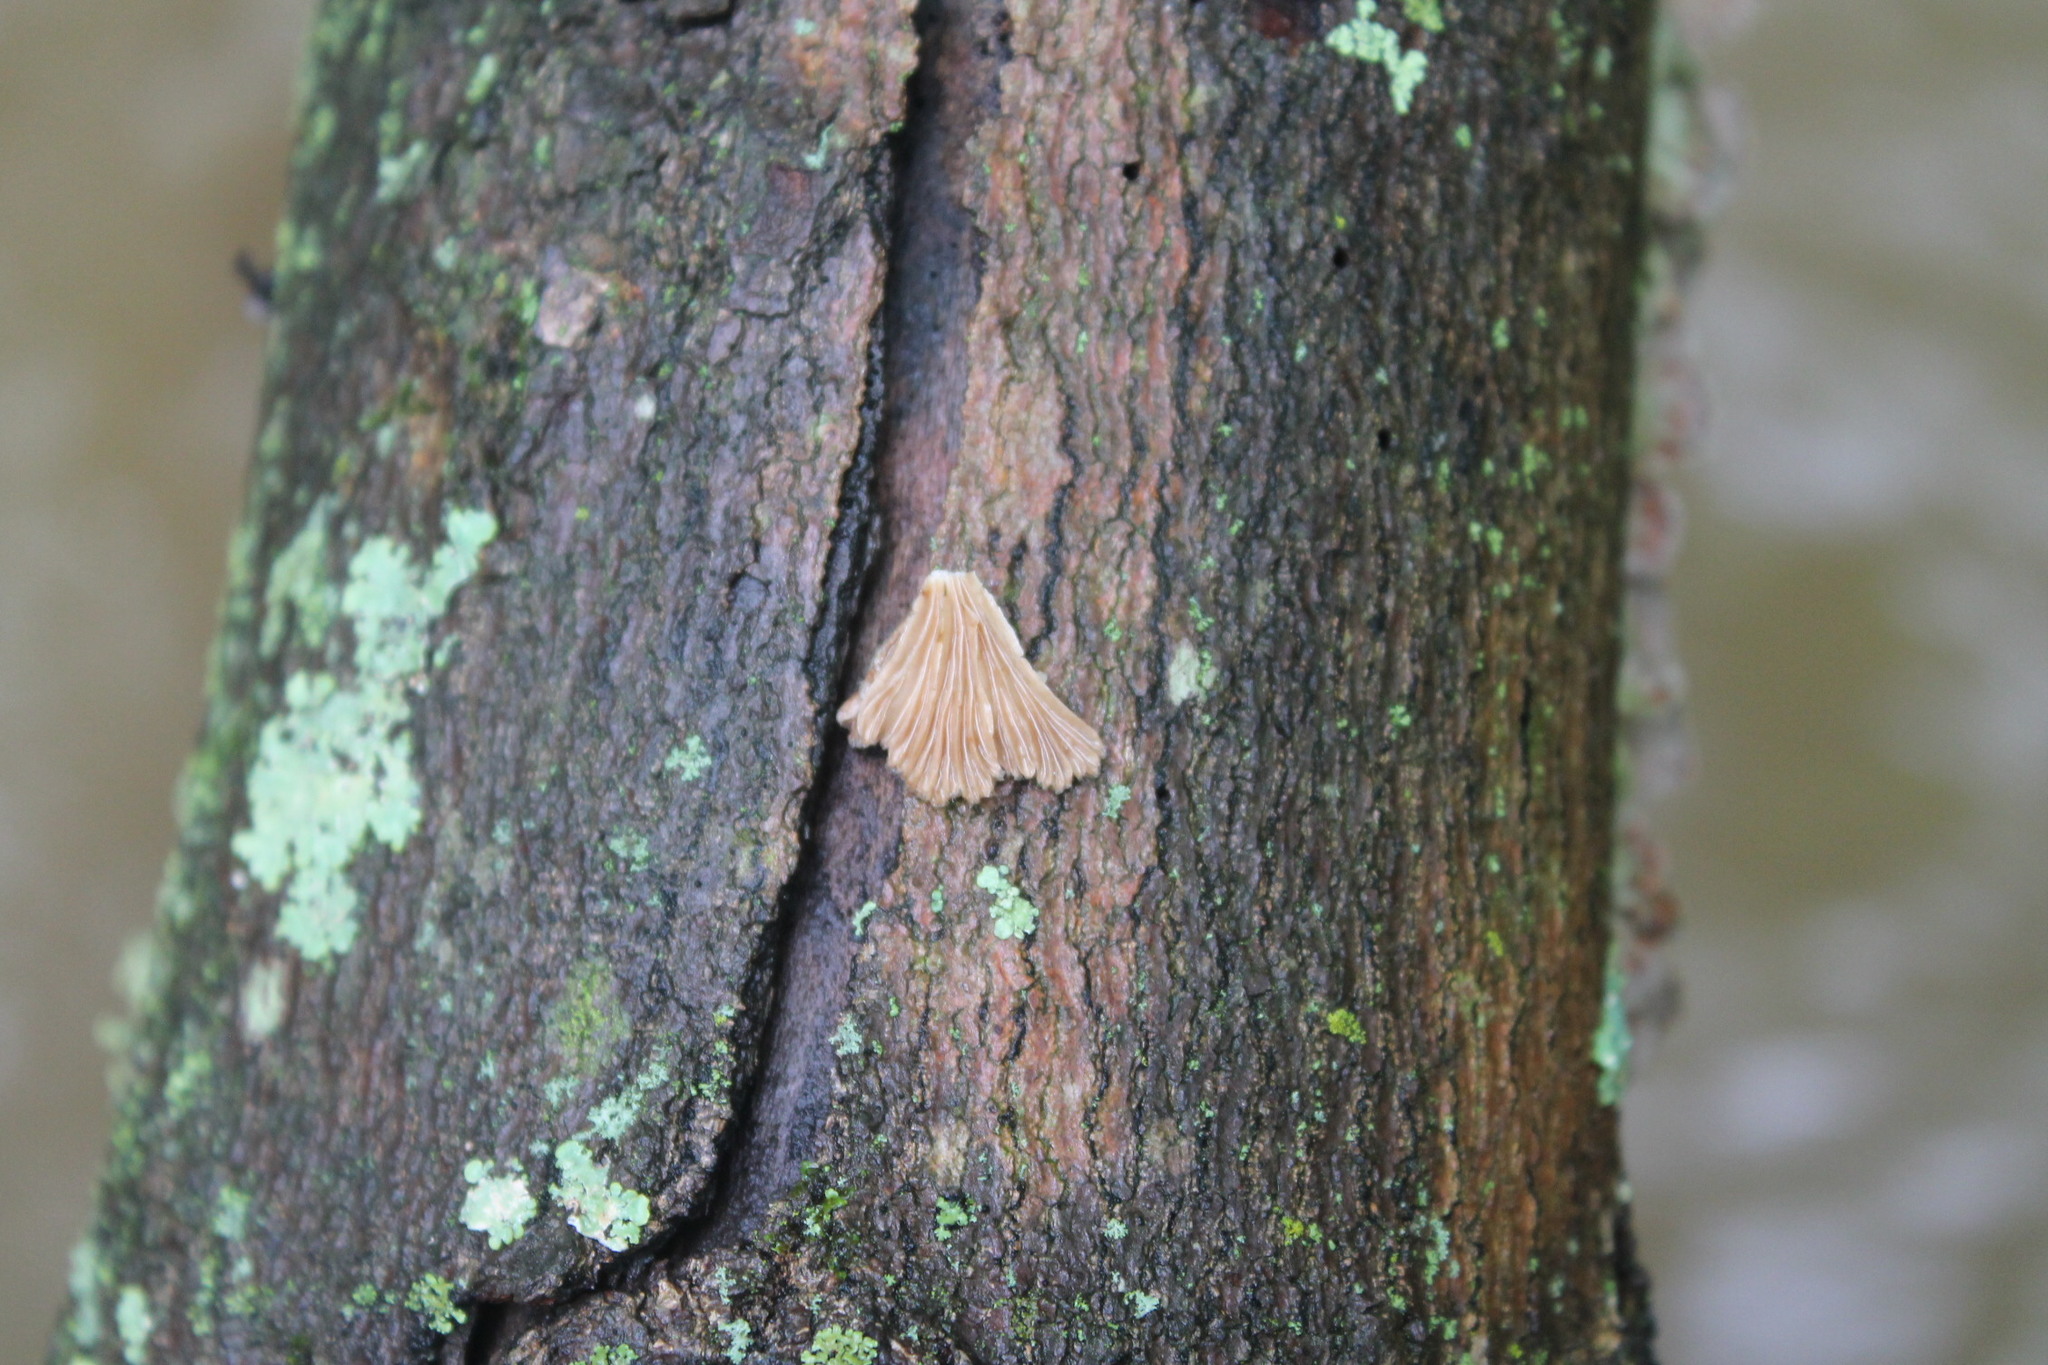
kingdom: Fungi
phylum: Basidiomycota
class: Agaricomycetes
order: Agaricales
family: Schizophyllaceae
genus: Schizophyllum
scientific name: Schizophyllum commune
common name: Common porecrust
